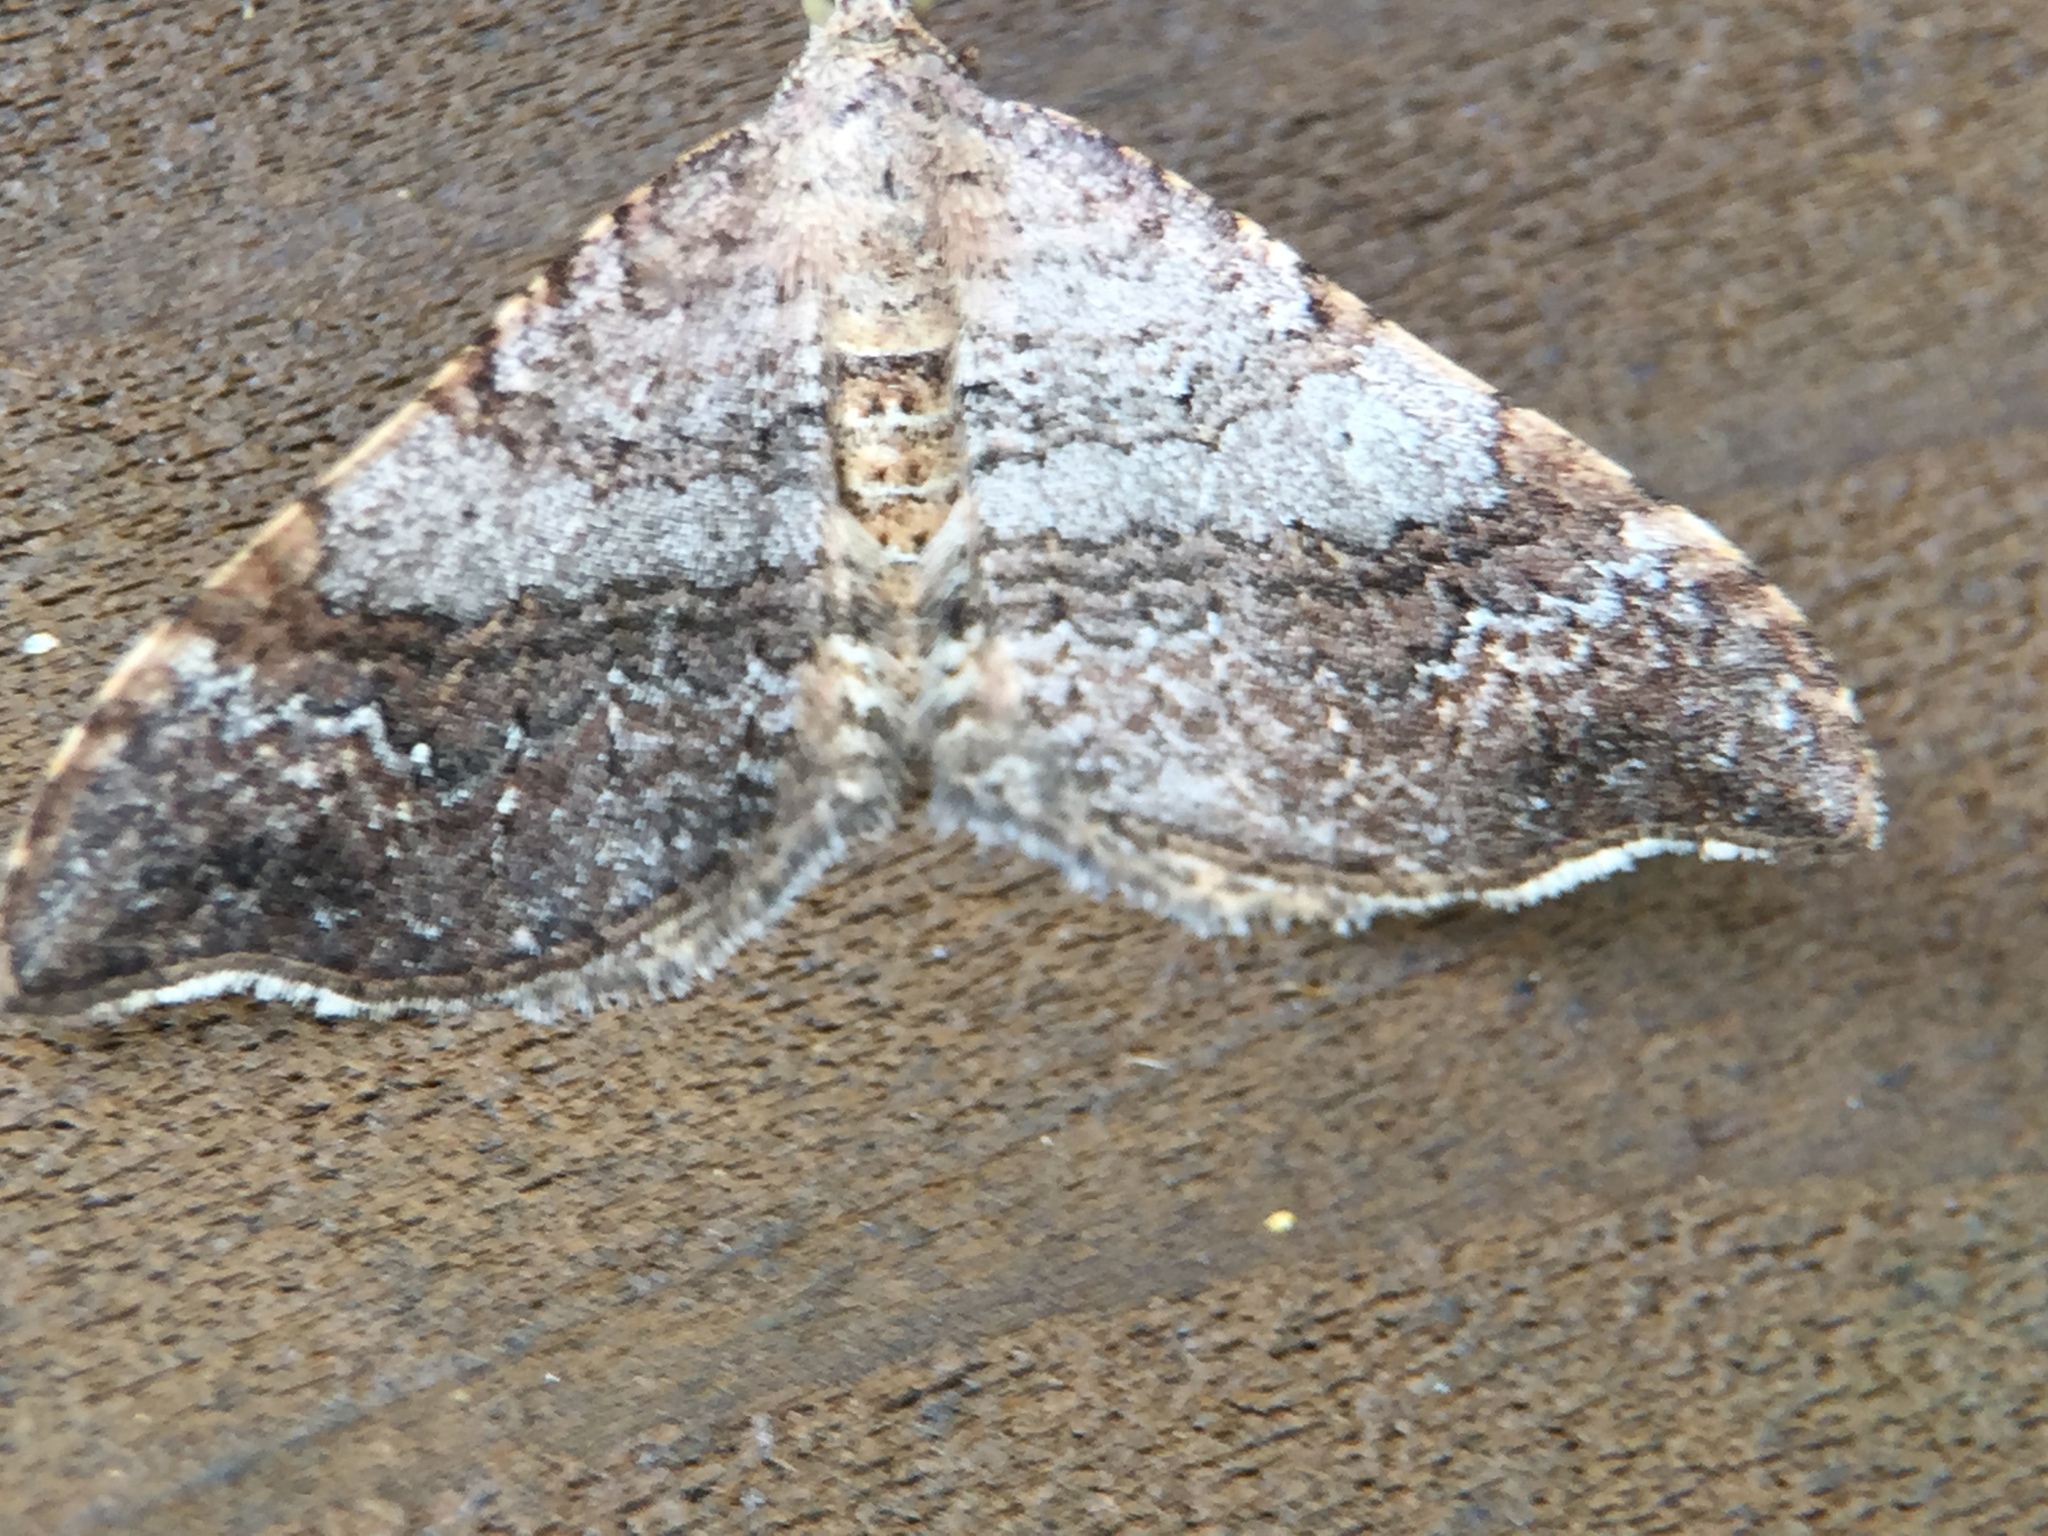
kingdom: Animalia
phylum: Arthropoda
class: Insecta
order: Lepidoptera
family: Geometridae
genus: Homodotis
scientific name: Homodotis megaspilata
